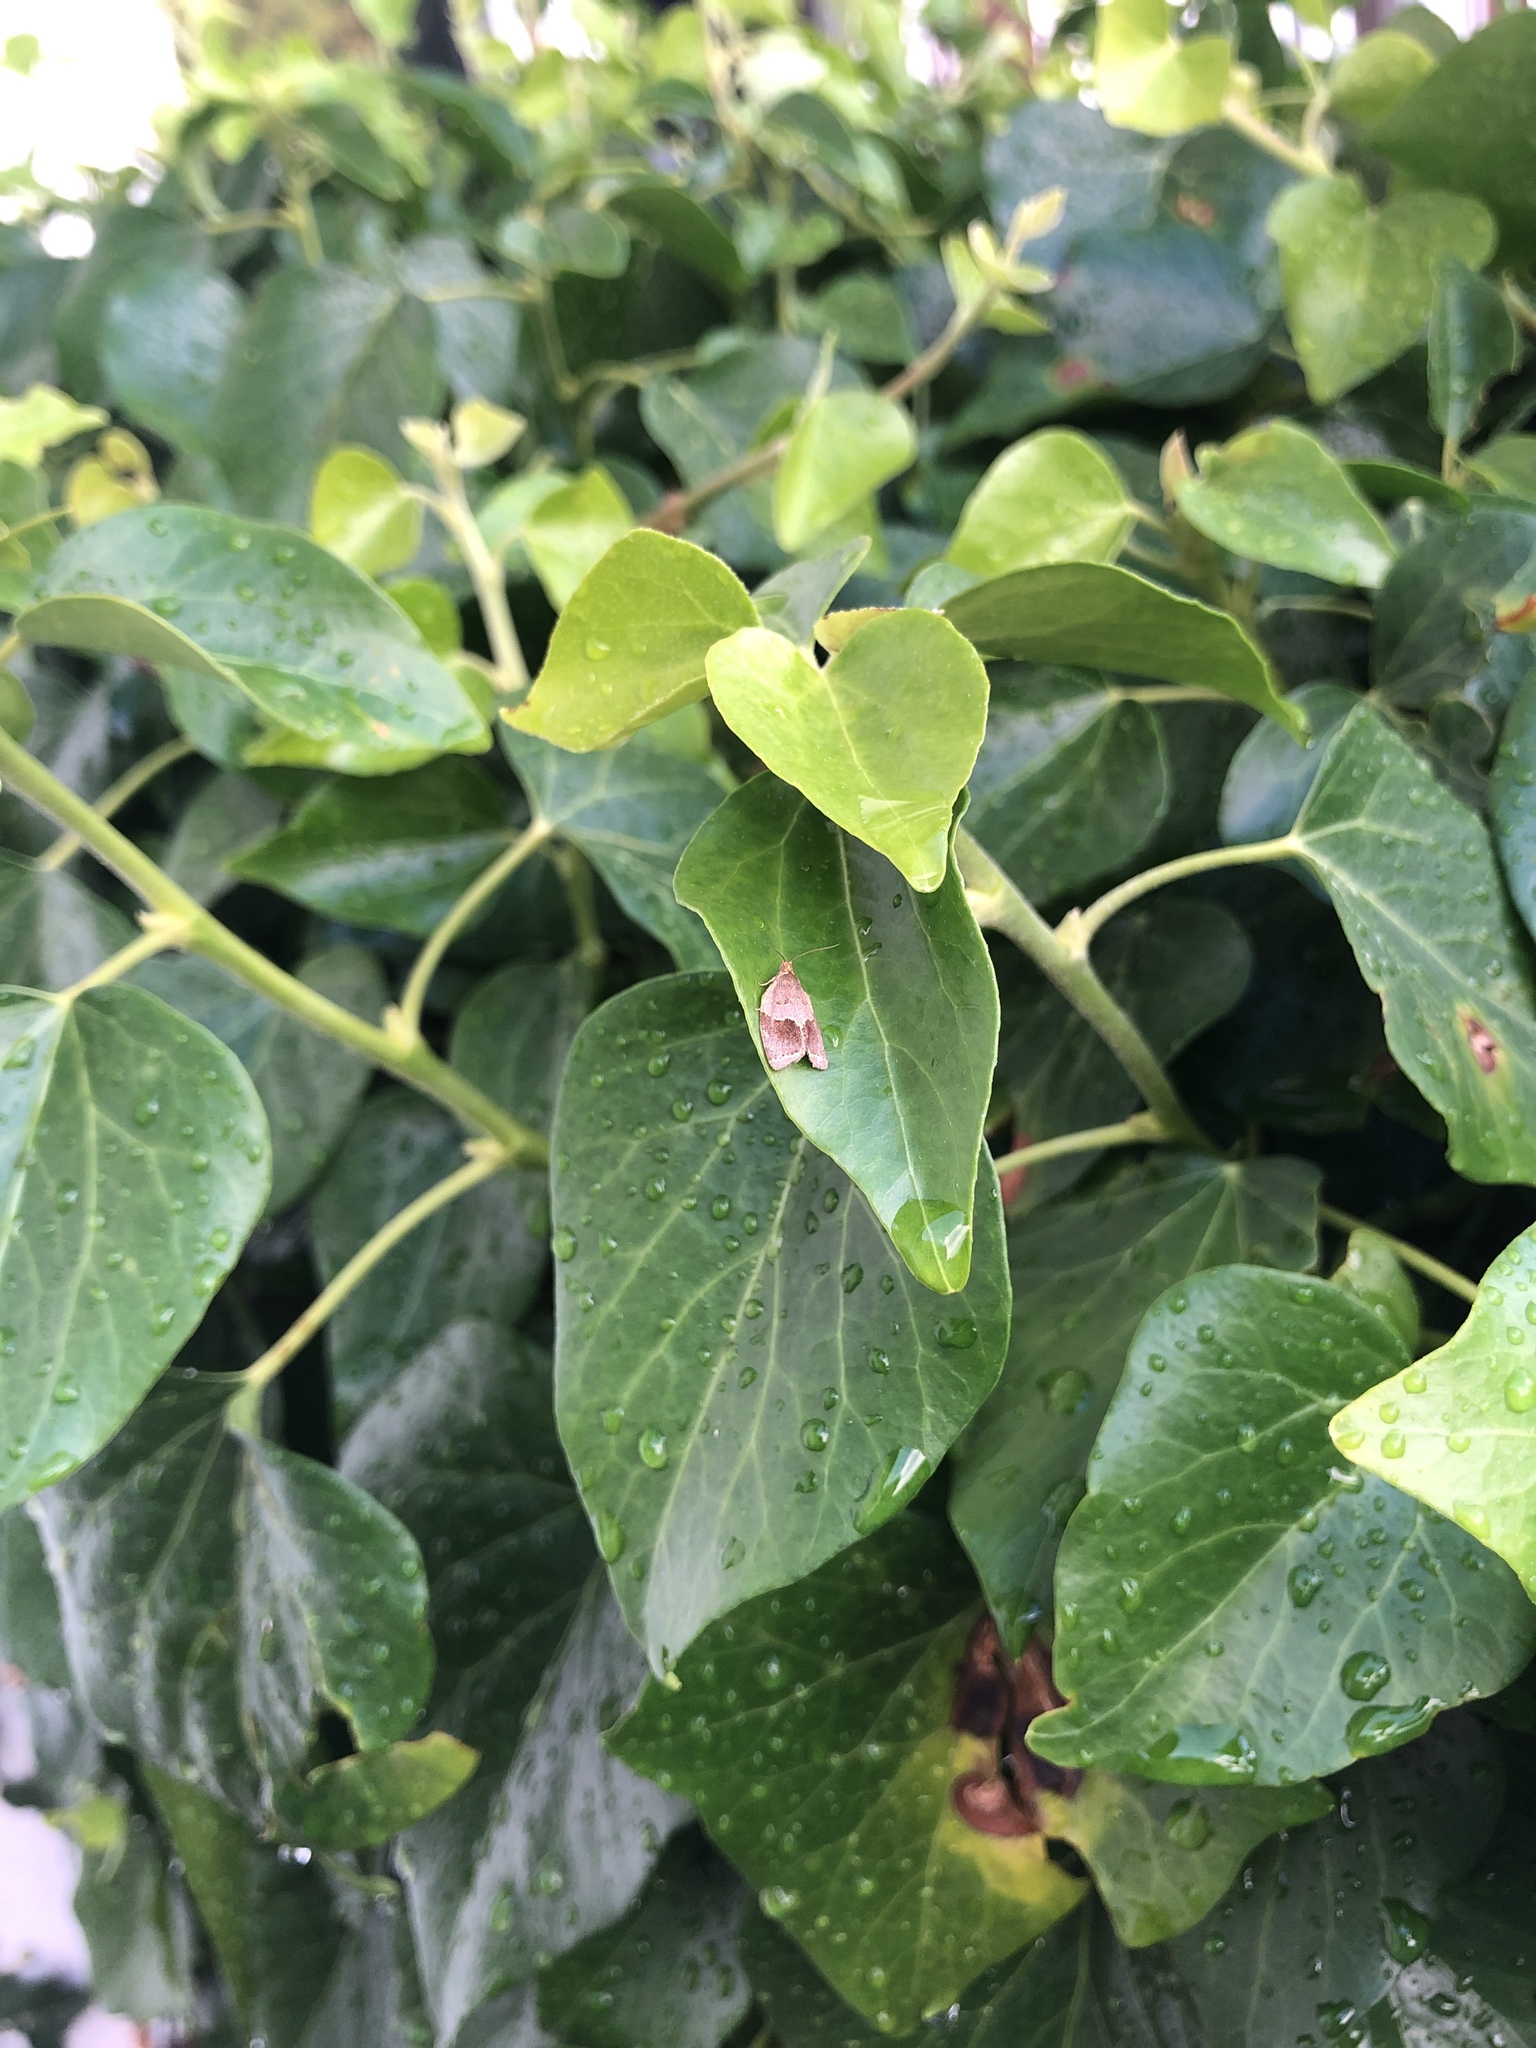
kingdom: Animalia
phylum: Arthropoda
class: Insecta
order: Lepidoptera
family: Tortricidae
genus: Clepsis
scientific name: Clepsis dumicolana
